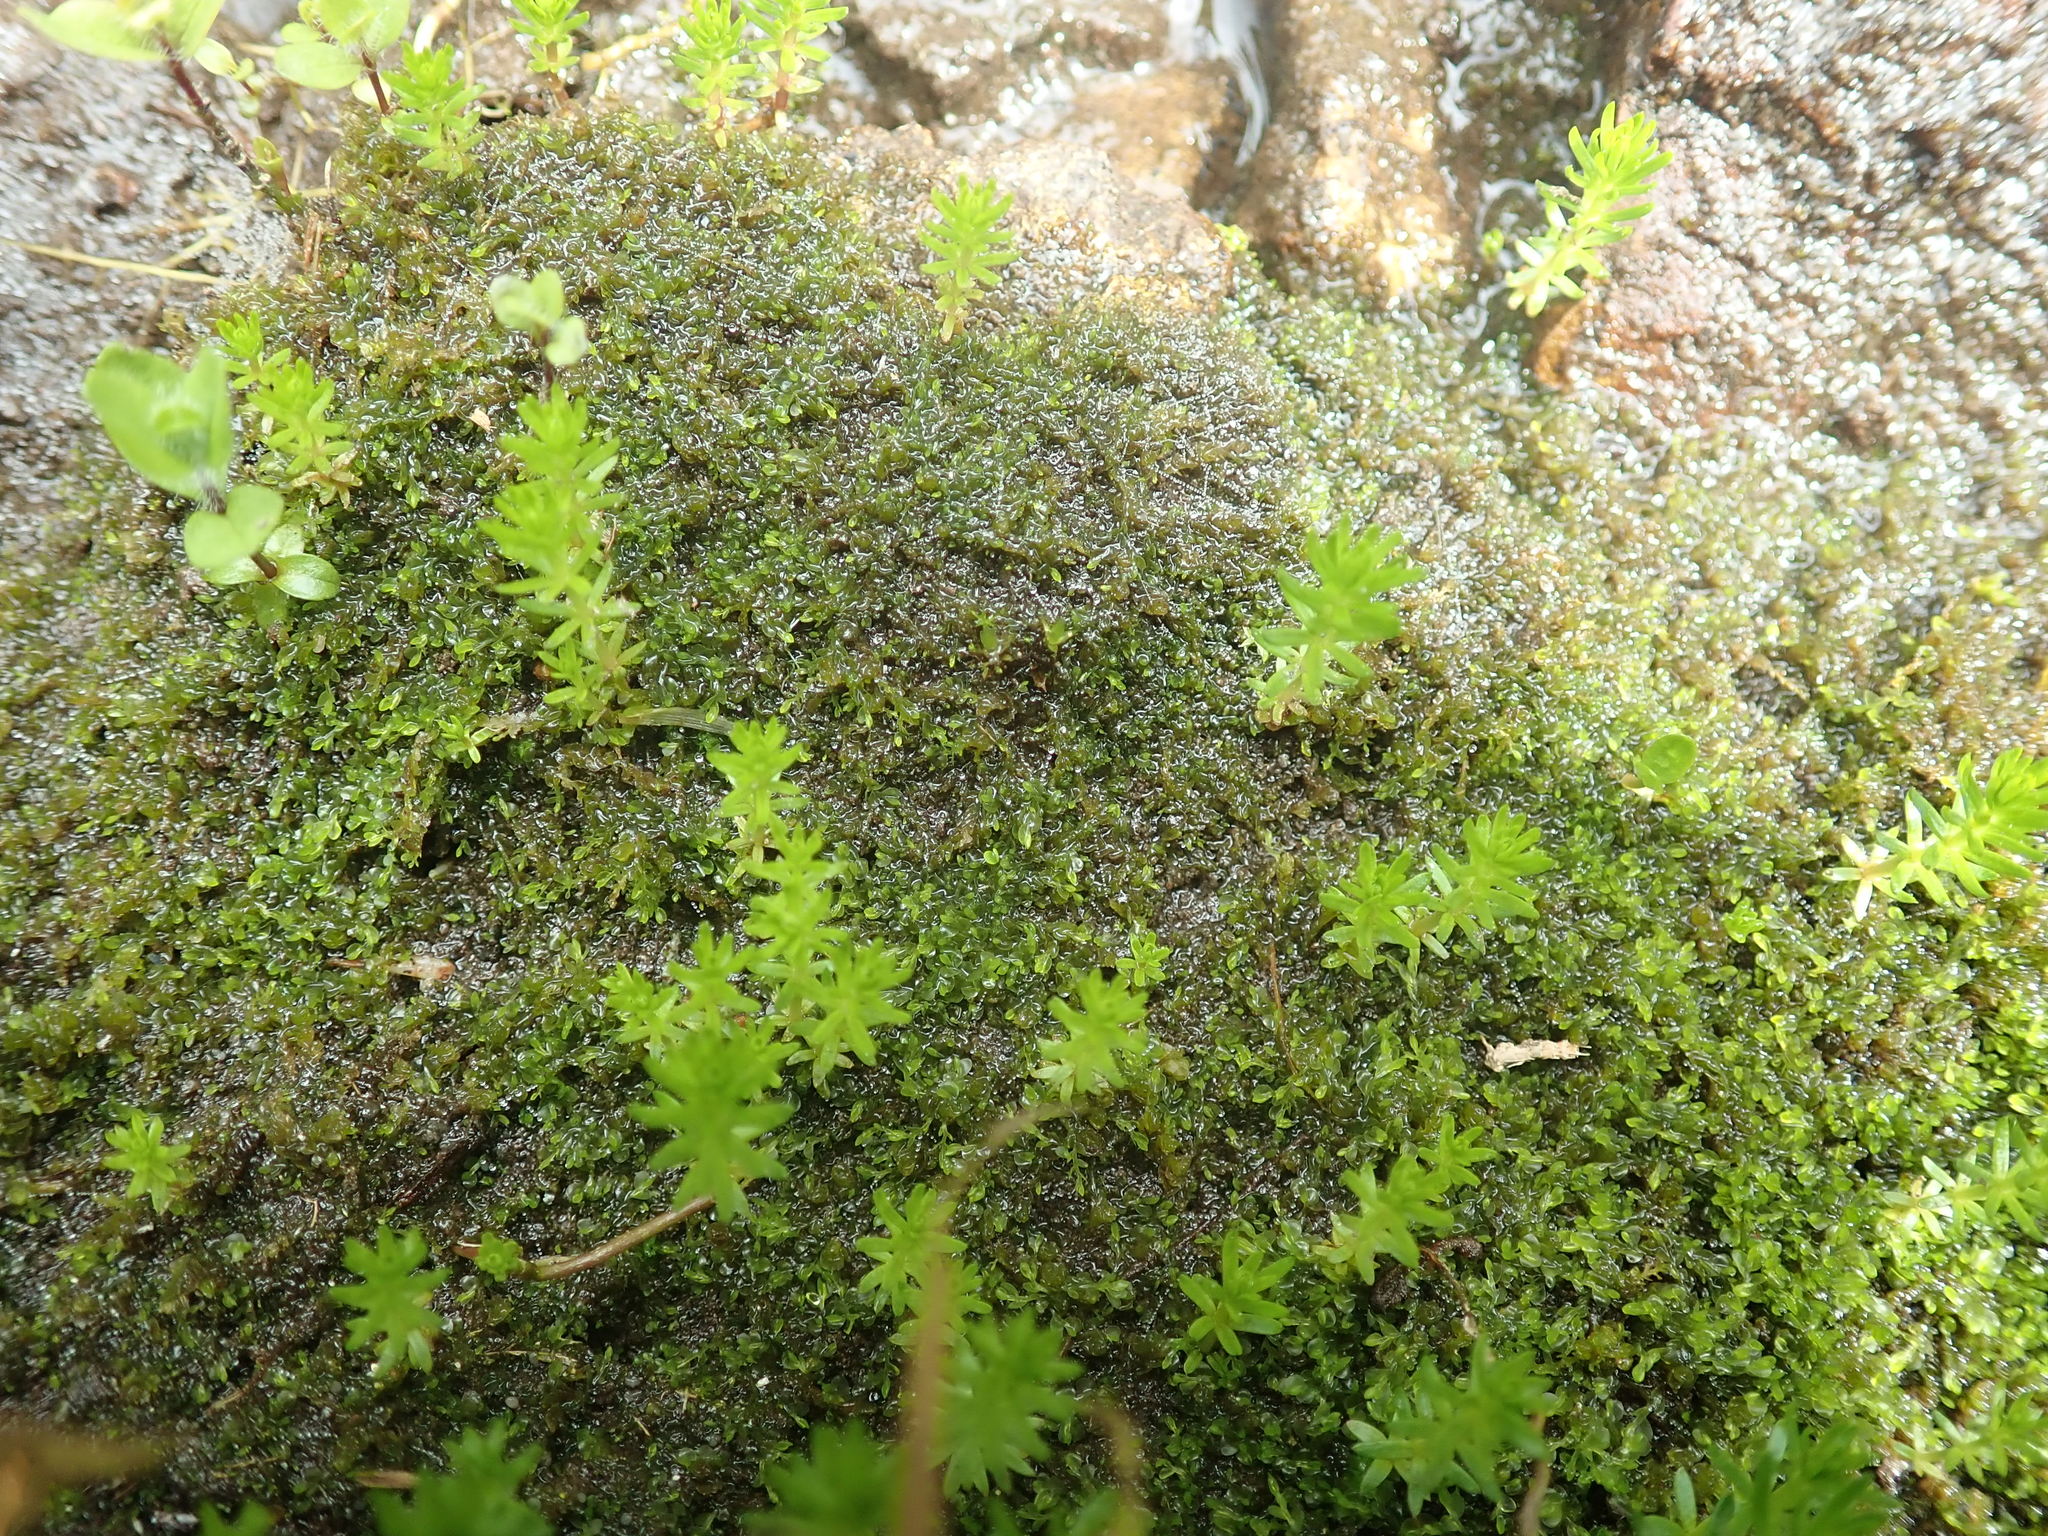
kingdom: Plantae
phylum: Tracheophyta
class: Magnoliopsida
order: Lamiales
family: Plantaginaceae
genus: Hippuris
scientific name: Hippuris montana
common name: Mountain mare's-tail
